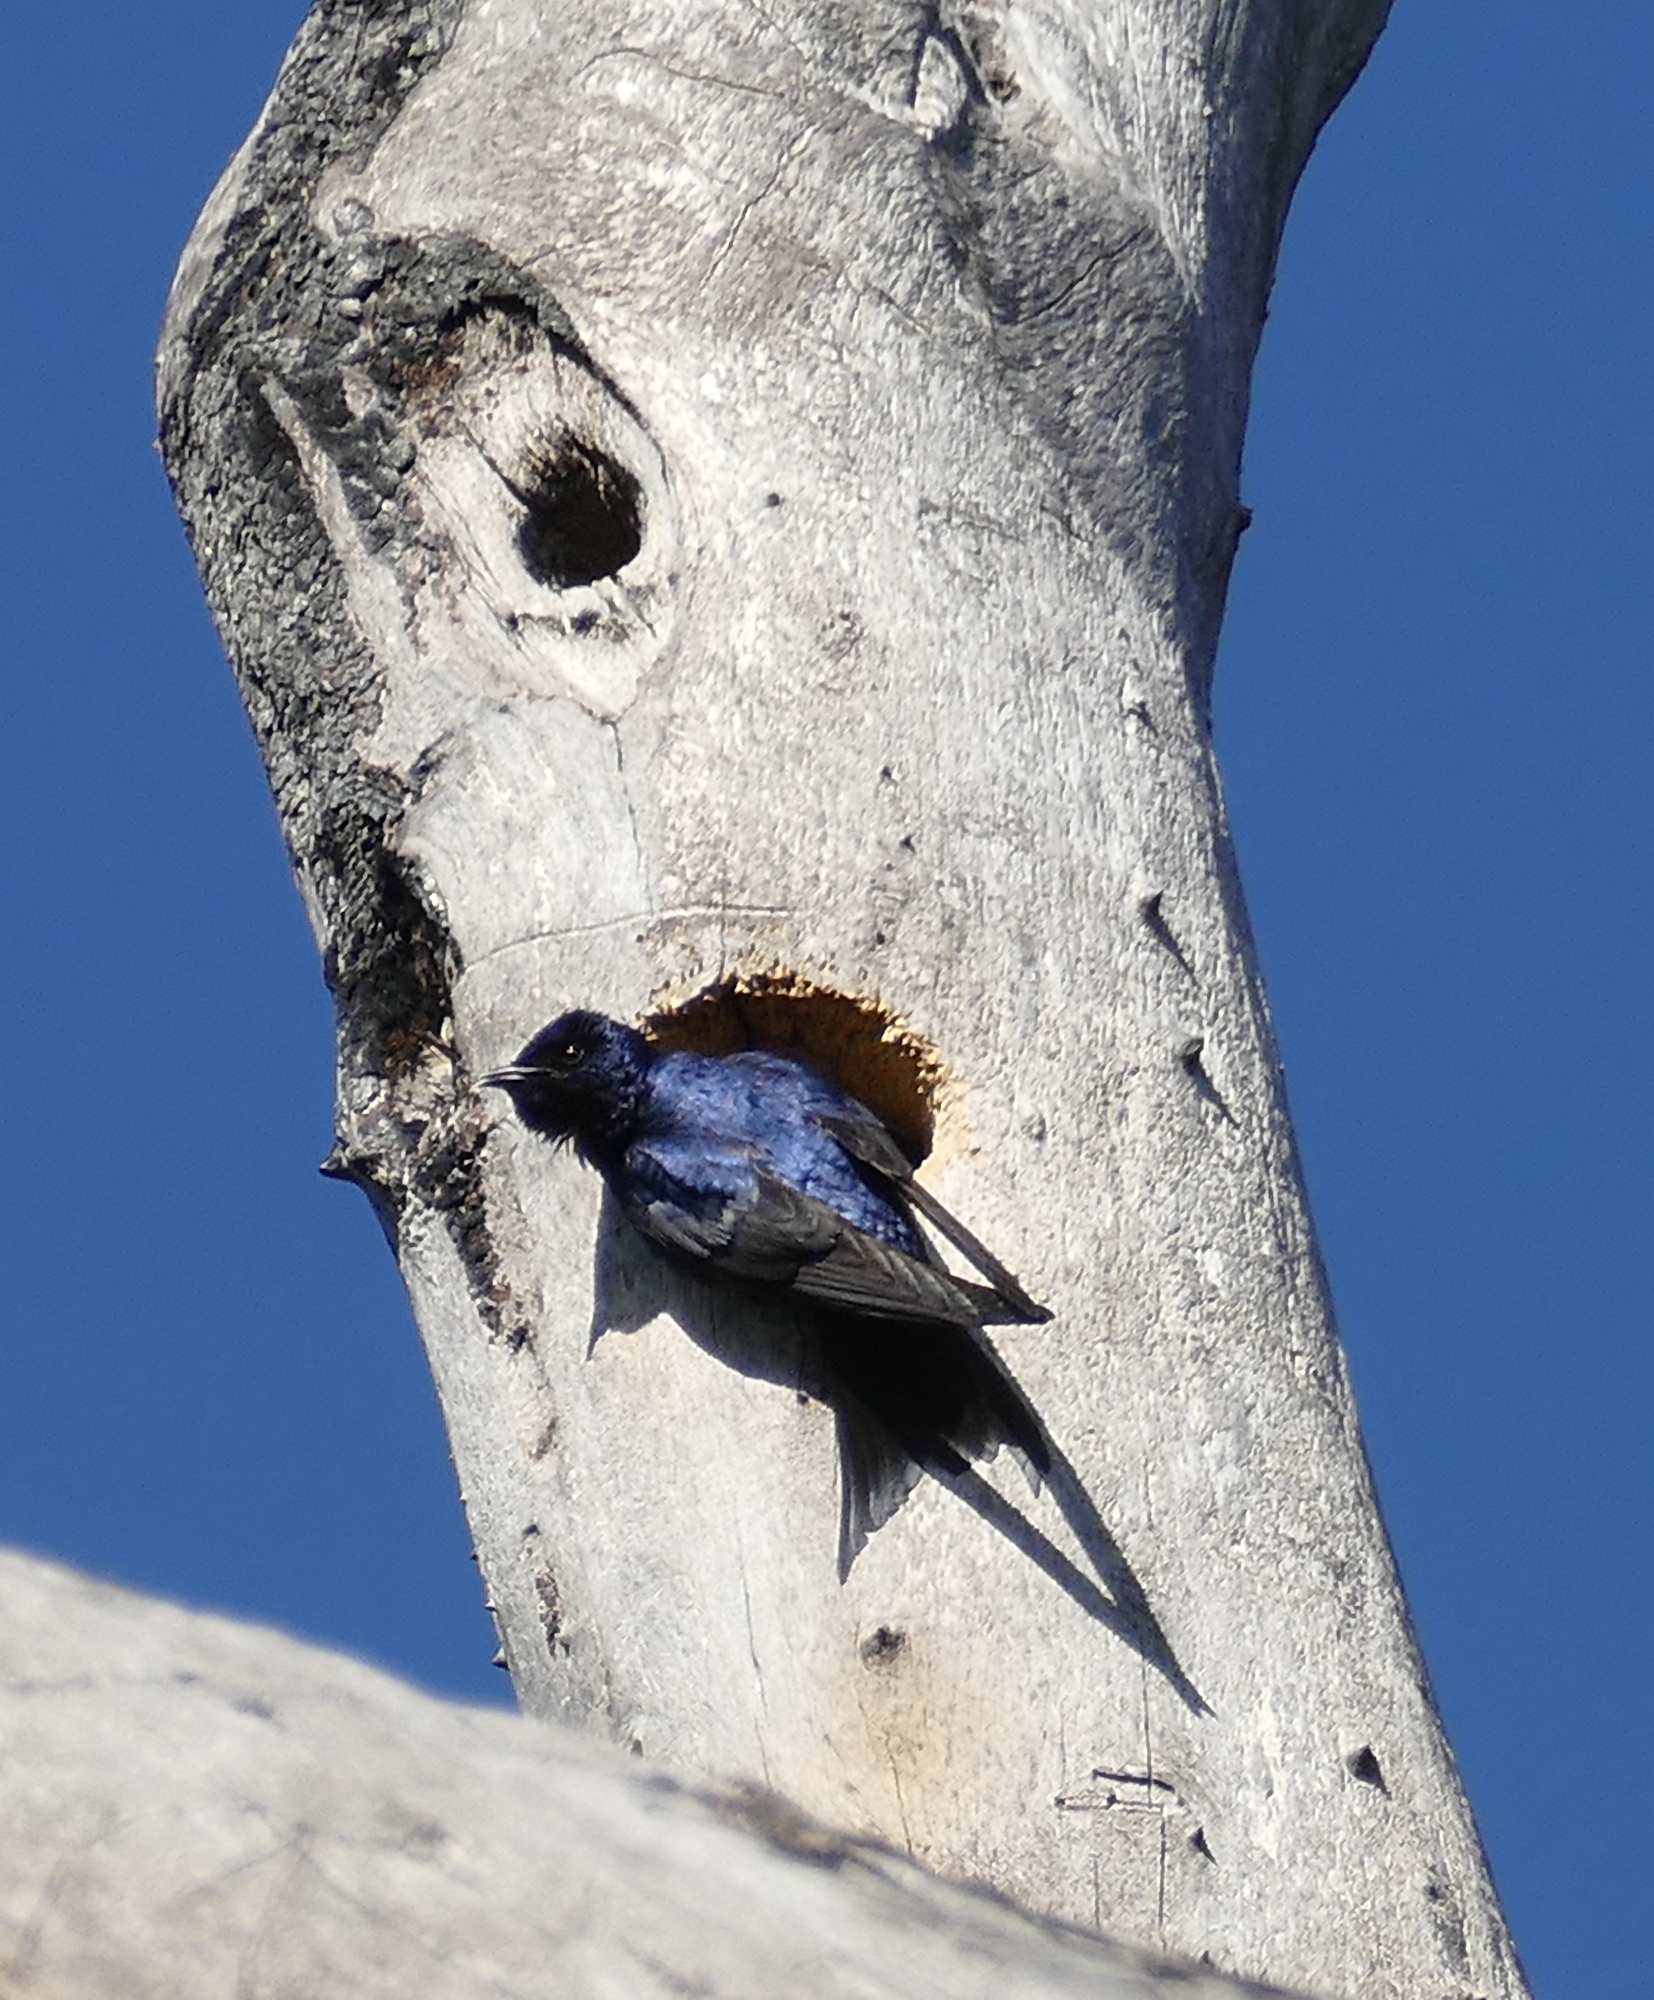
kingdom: Animalia
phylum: Chordata
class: Aves
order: Passeriformes
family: Hirundinidae
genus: Progne
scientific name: Progne subis
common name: Purple martin
